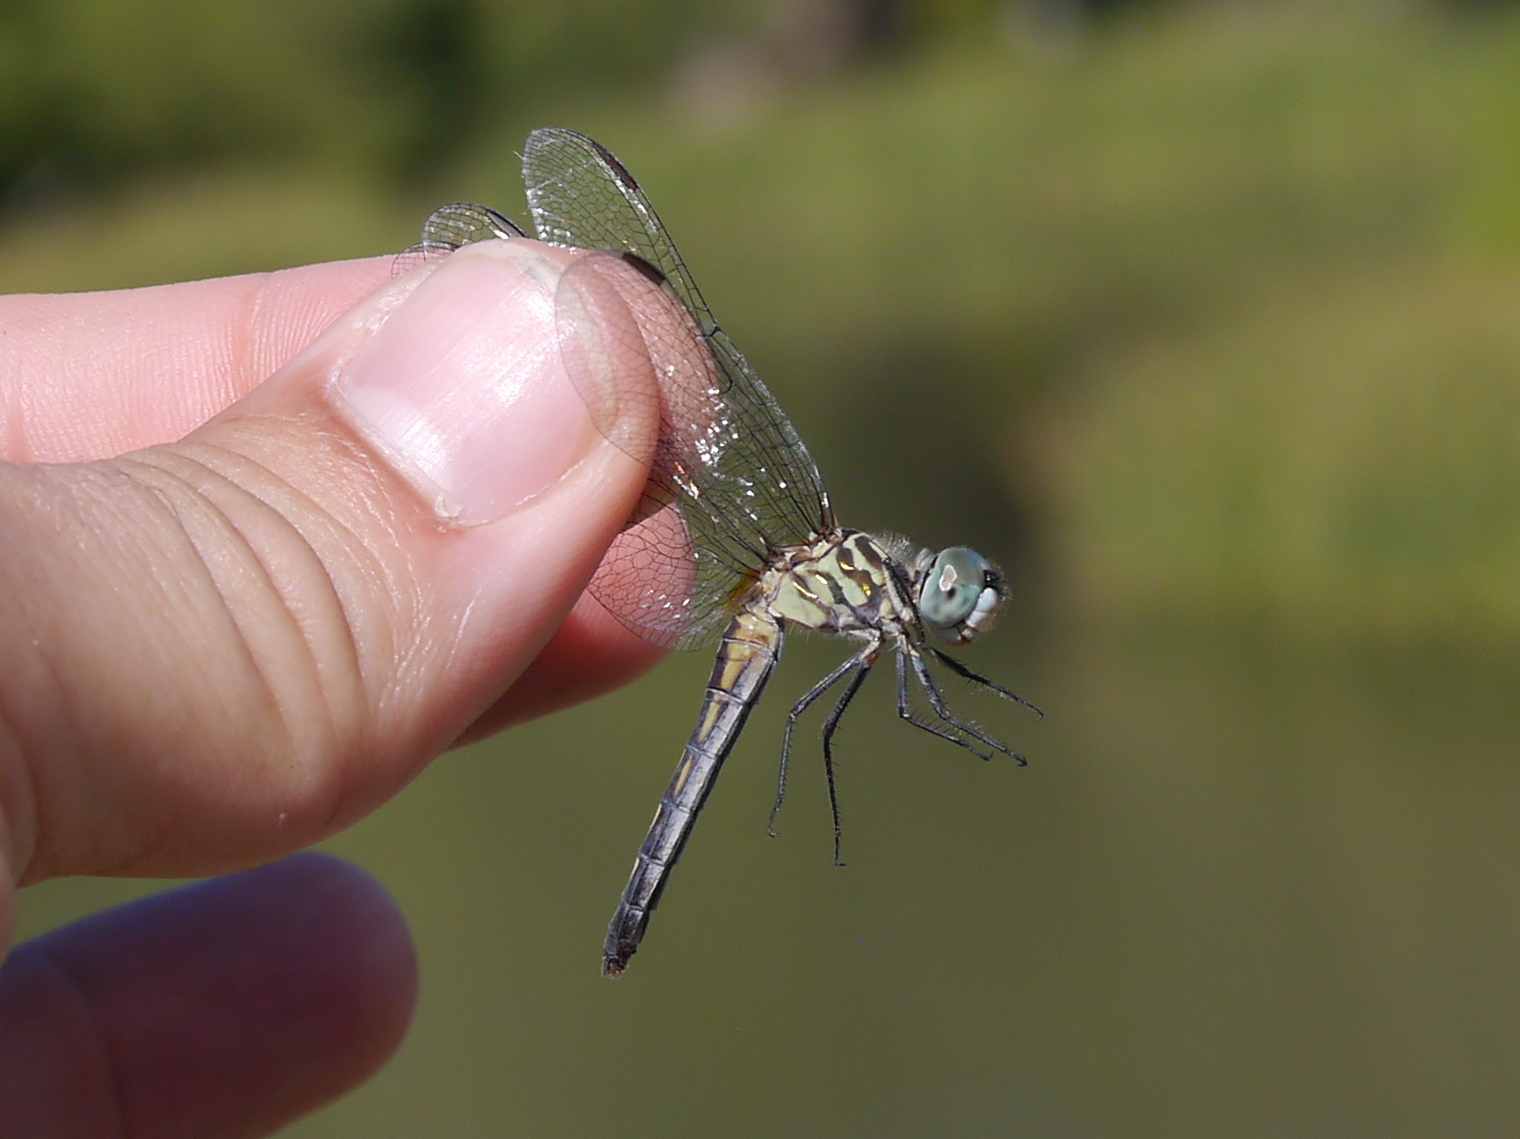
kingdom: Animalia
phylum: Arthropoda
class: Insecta
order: Odonata
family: Libellulidae
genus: Pachydiplax
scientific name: Pachydiplax longipennis
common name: Blue dasher
